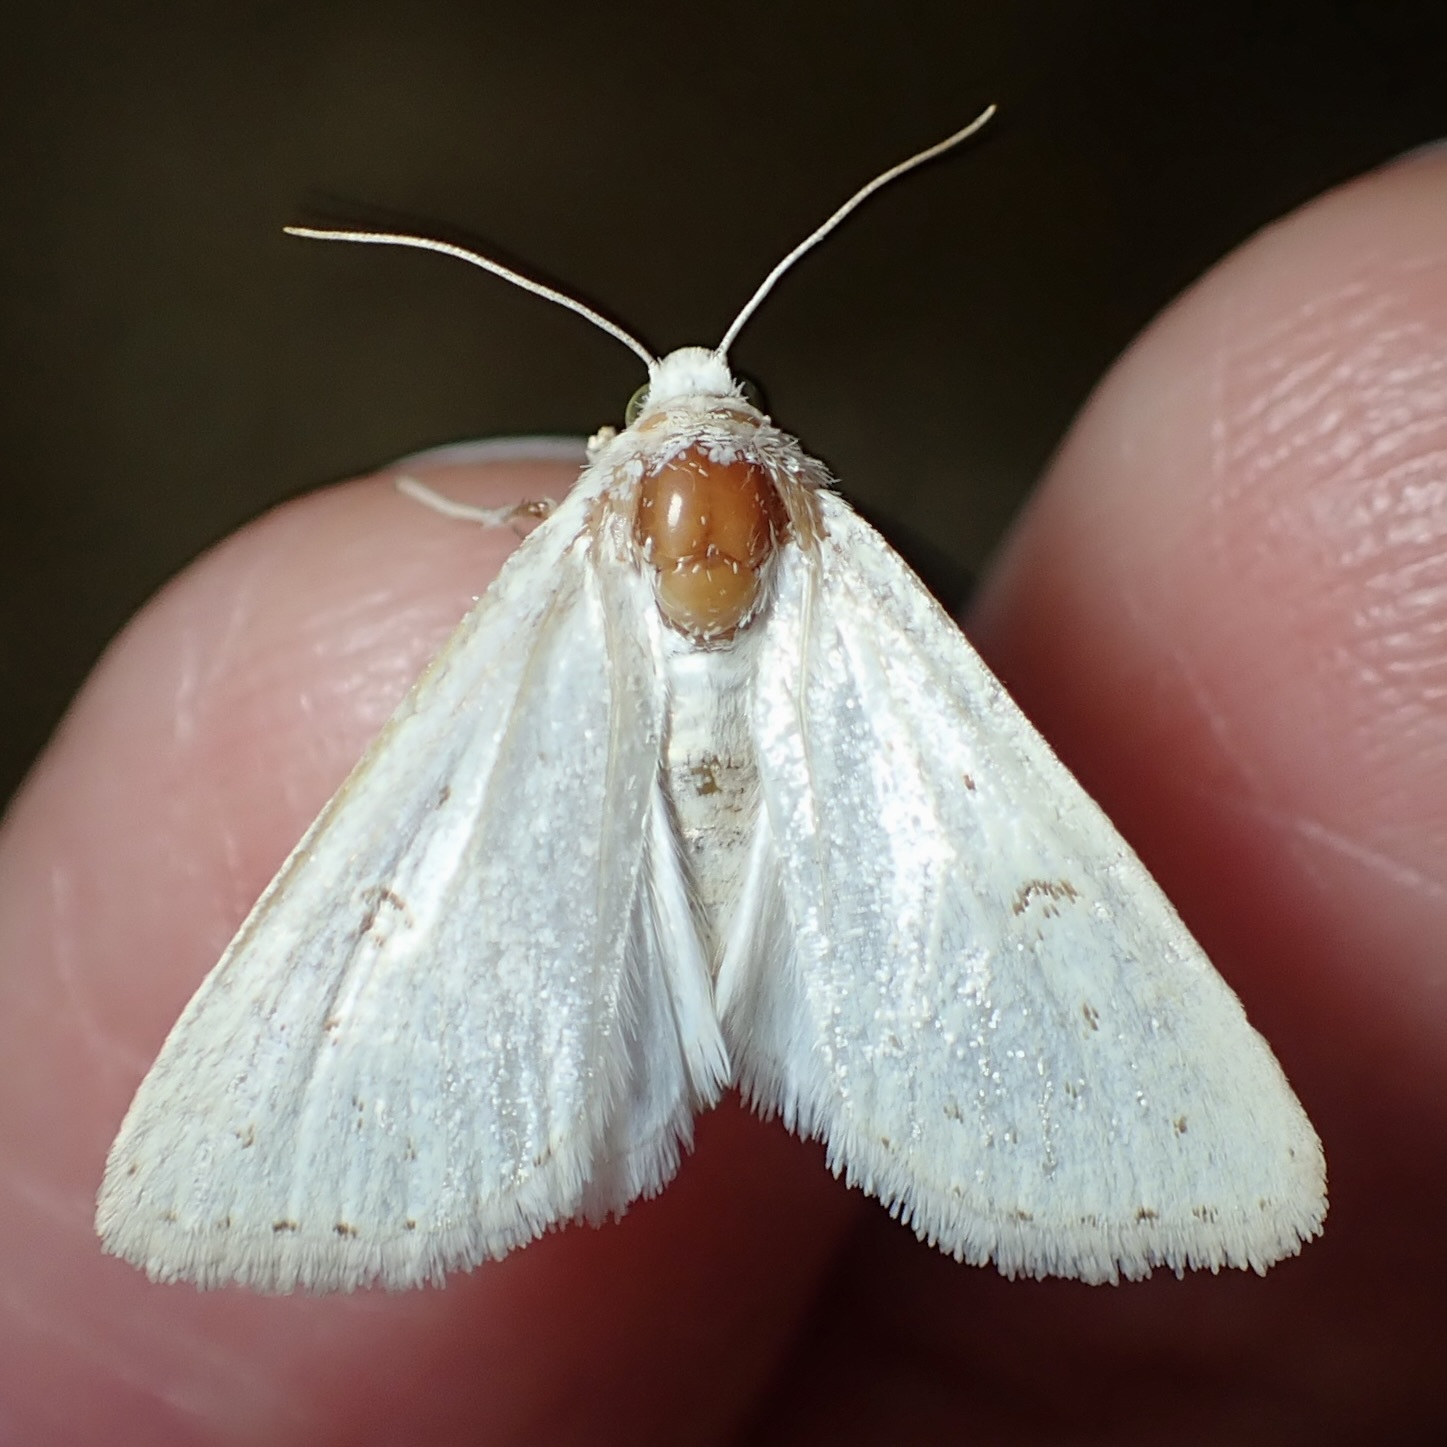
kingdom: Animalia
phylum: Arthropoda
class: Insecta
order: Lepidoptera
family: Noctuidae
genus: Schinia
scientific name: Schinia luxa
